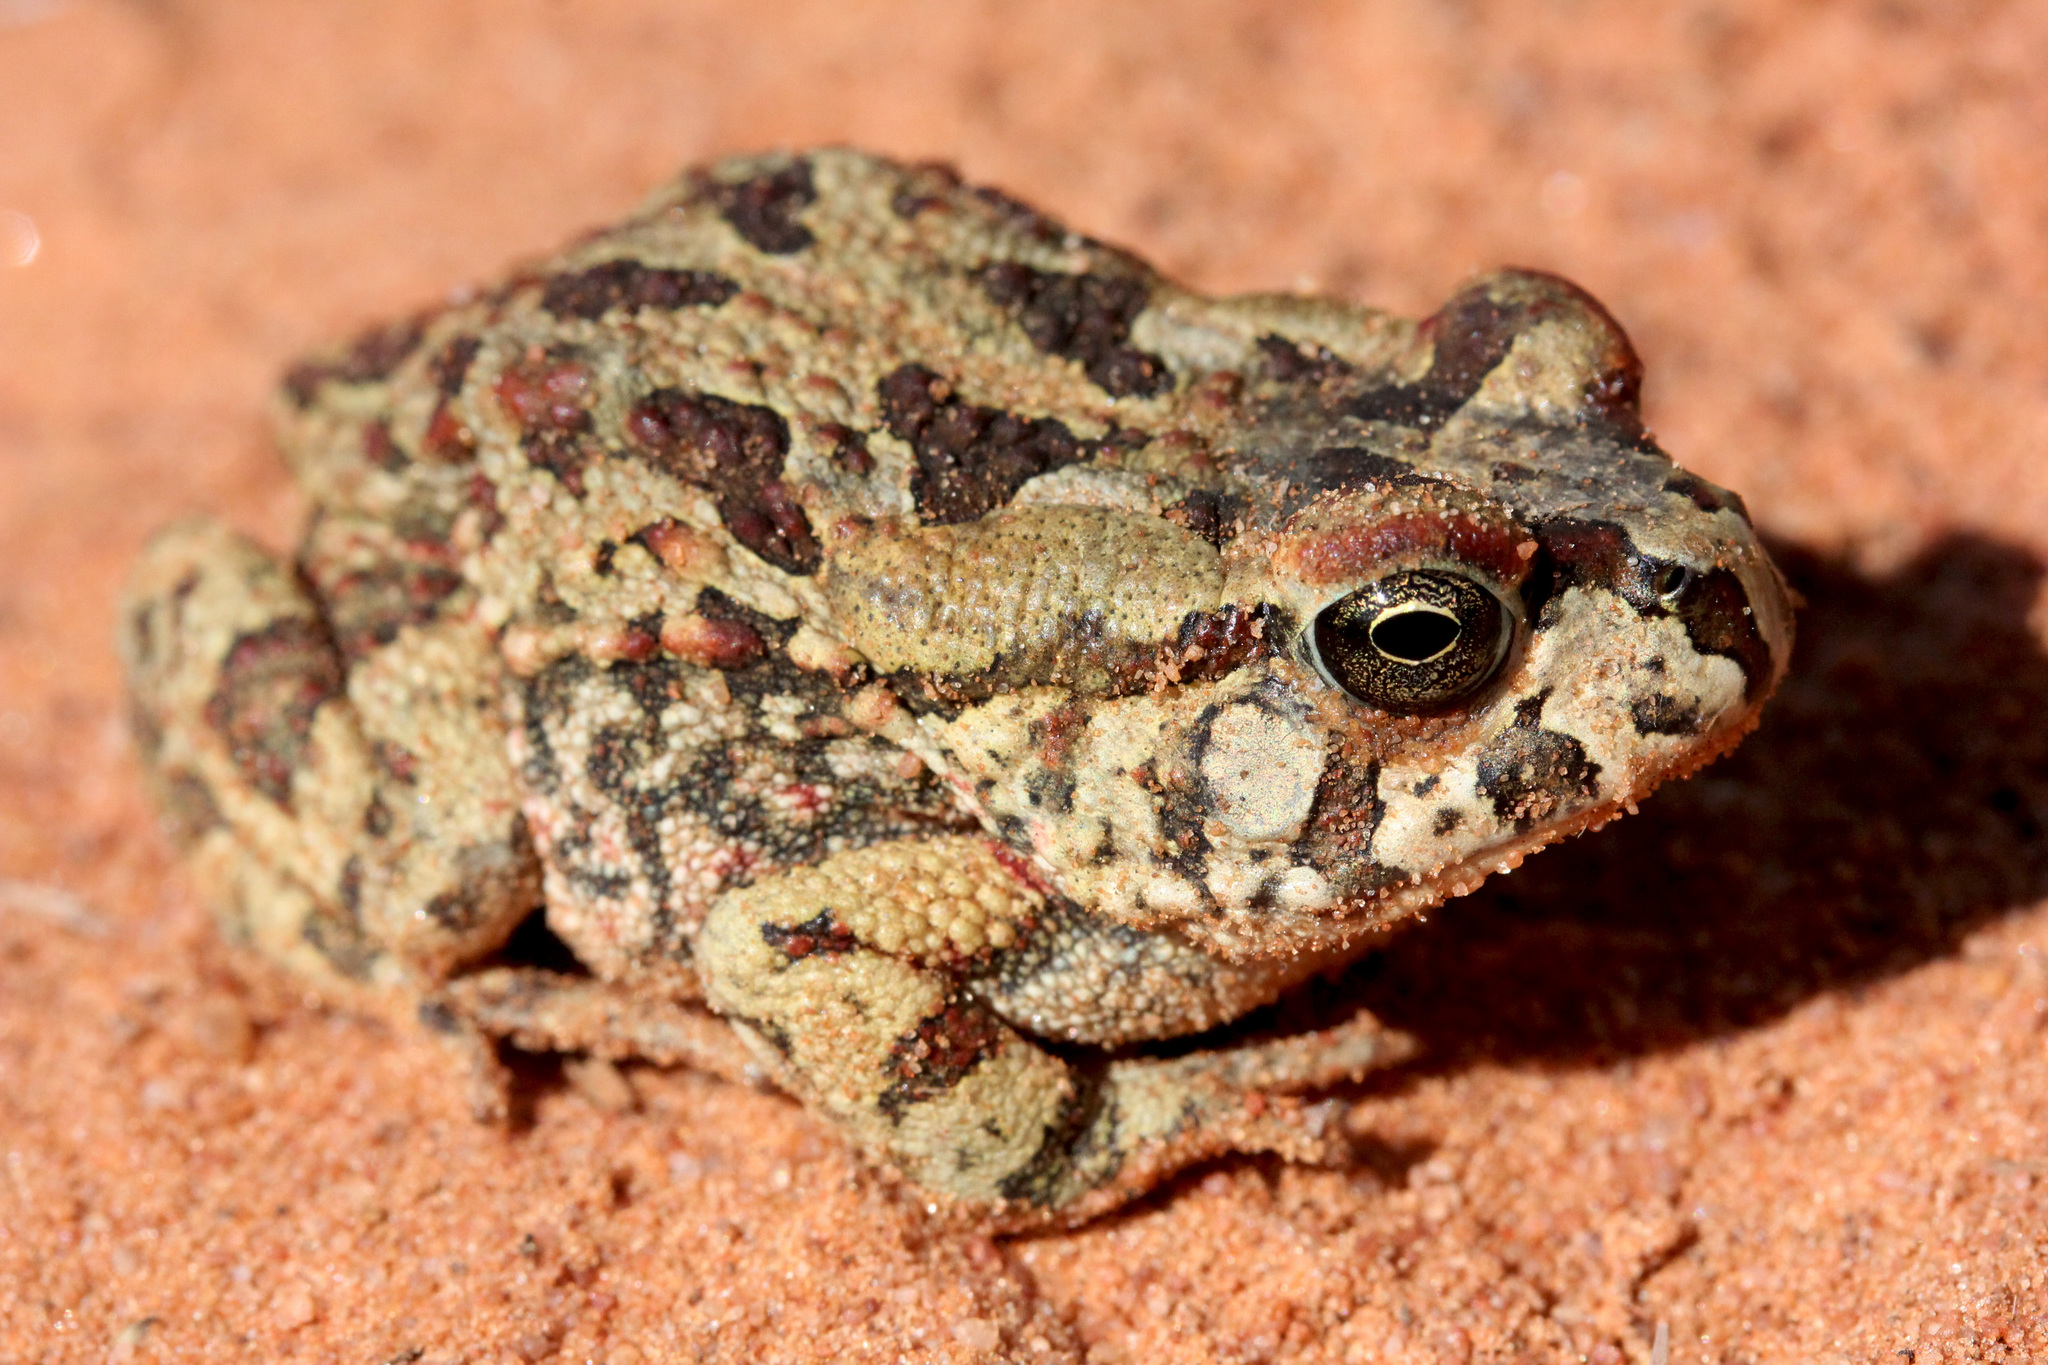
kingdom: Animalia
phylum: Chordata
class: Amphibia
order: Anura
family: Bufonidae
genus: Sclerophrys
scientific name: Sclerophrys poweri
